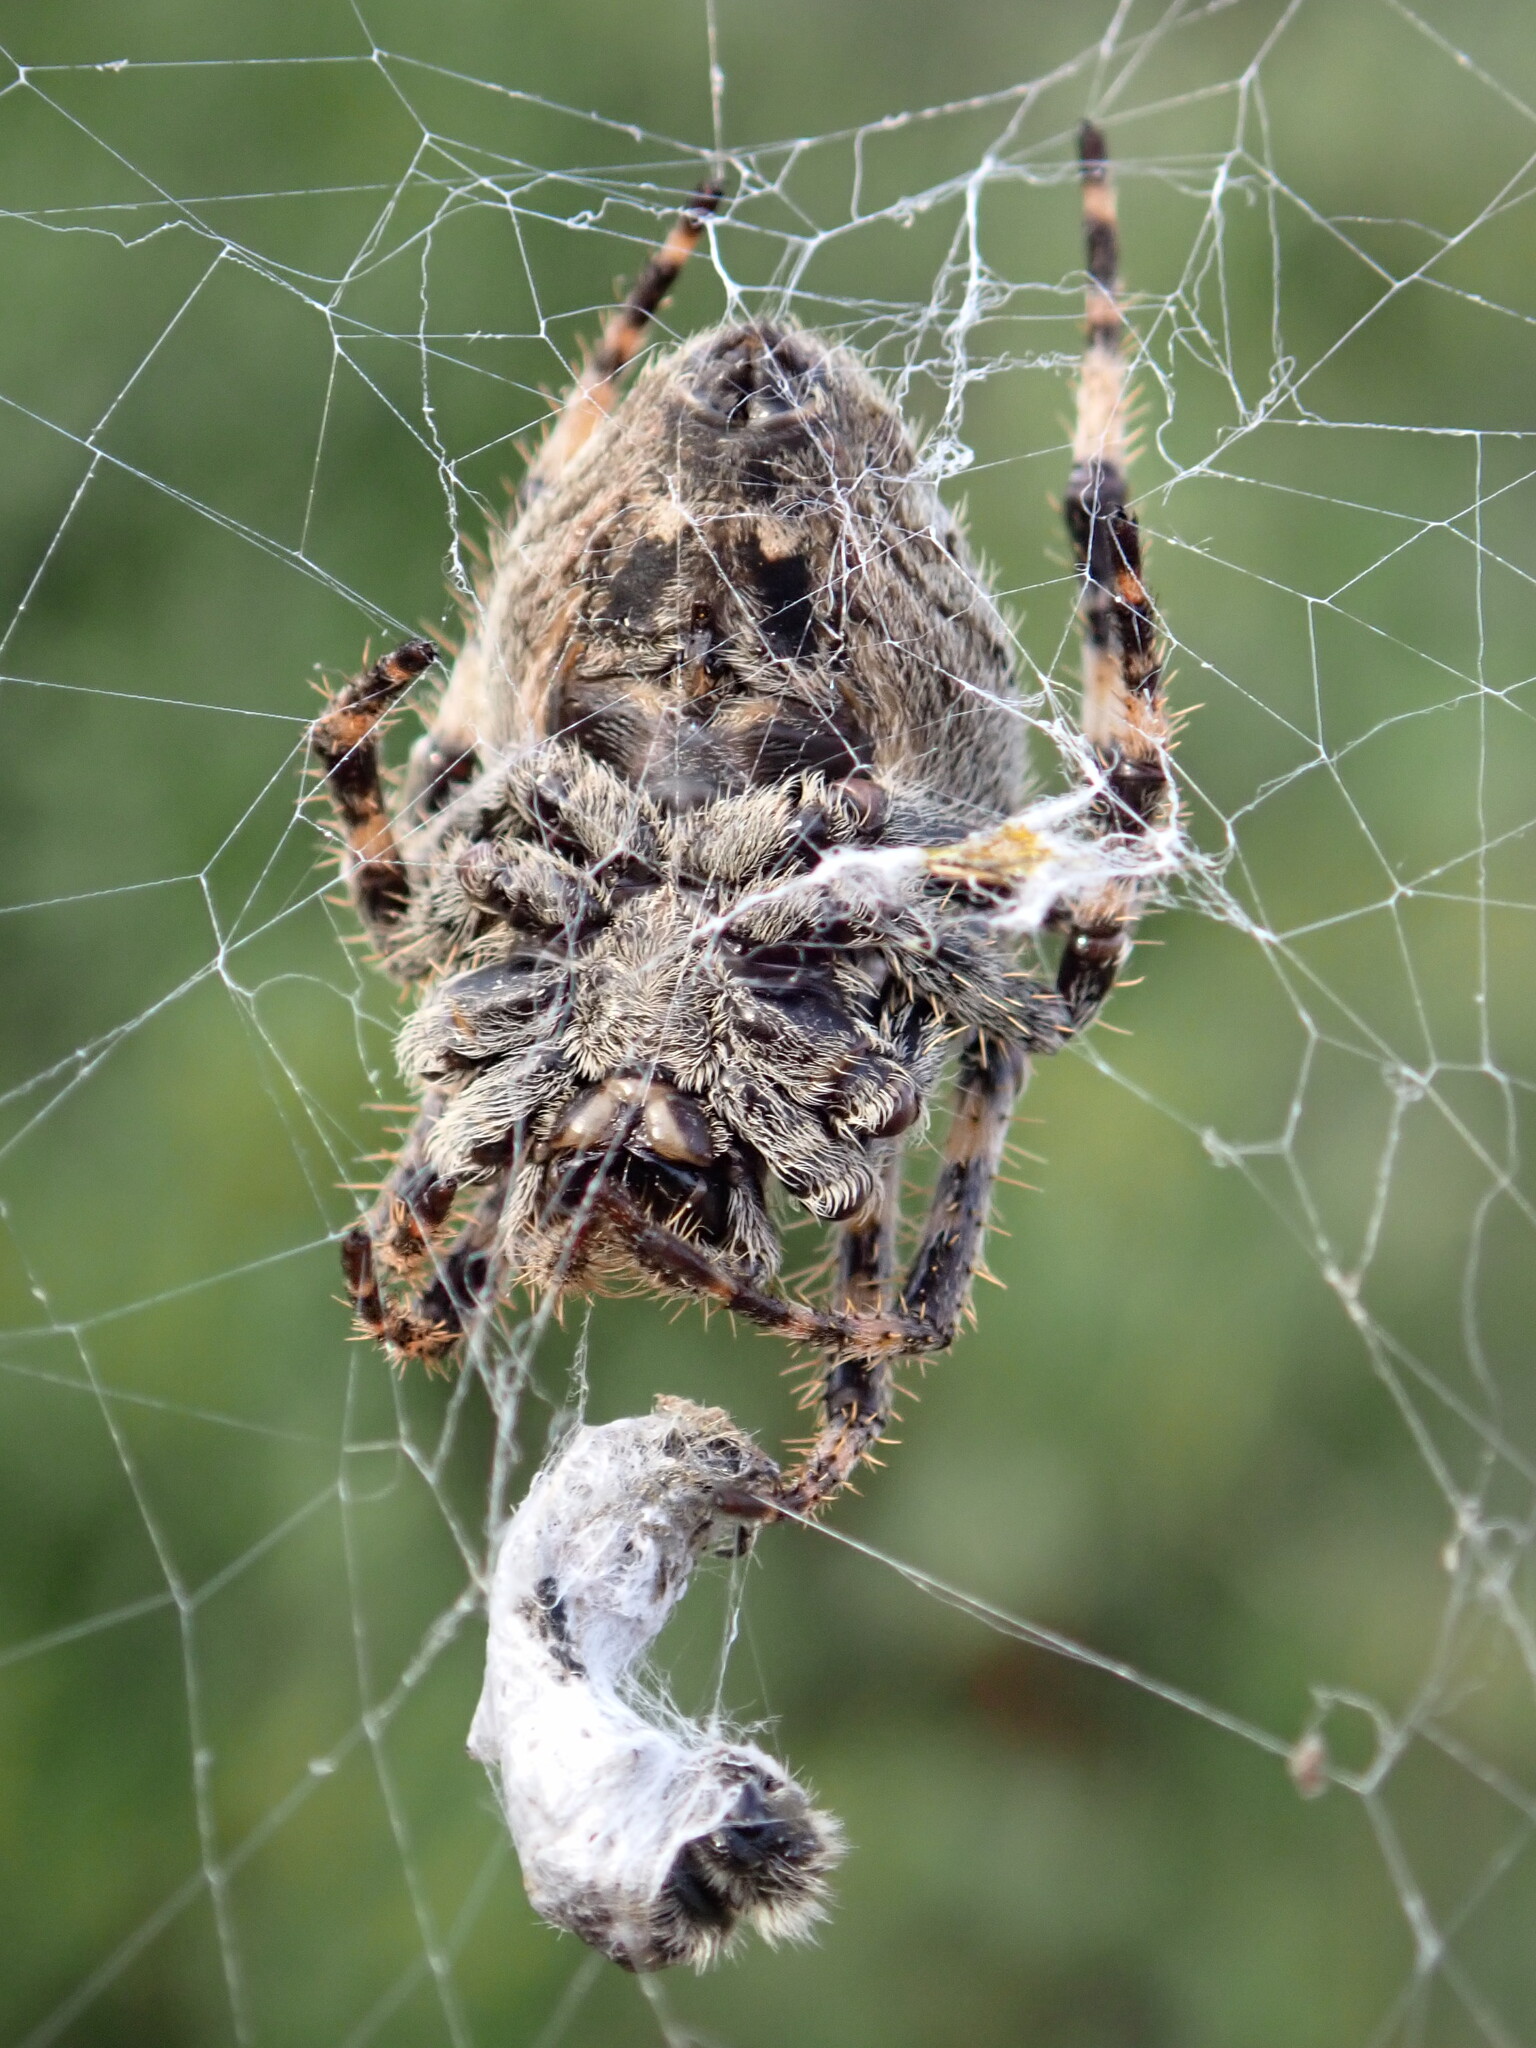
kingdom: Animalia
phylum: Arthropoda
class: Arachnida
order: Araneae
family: Araneidae
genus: Araneus
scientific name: Araneus angulatus
